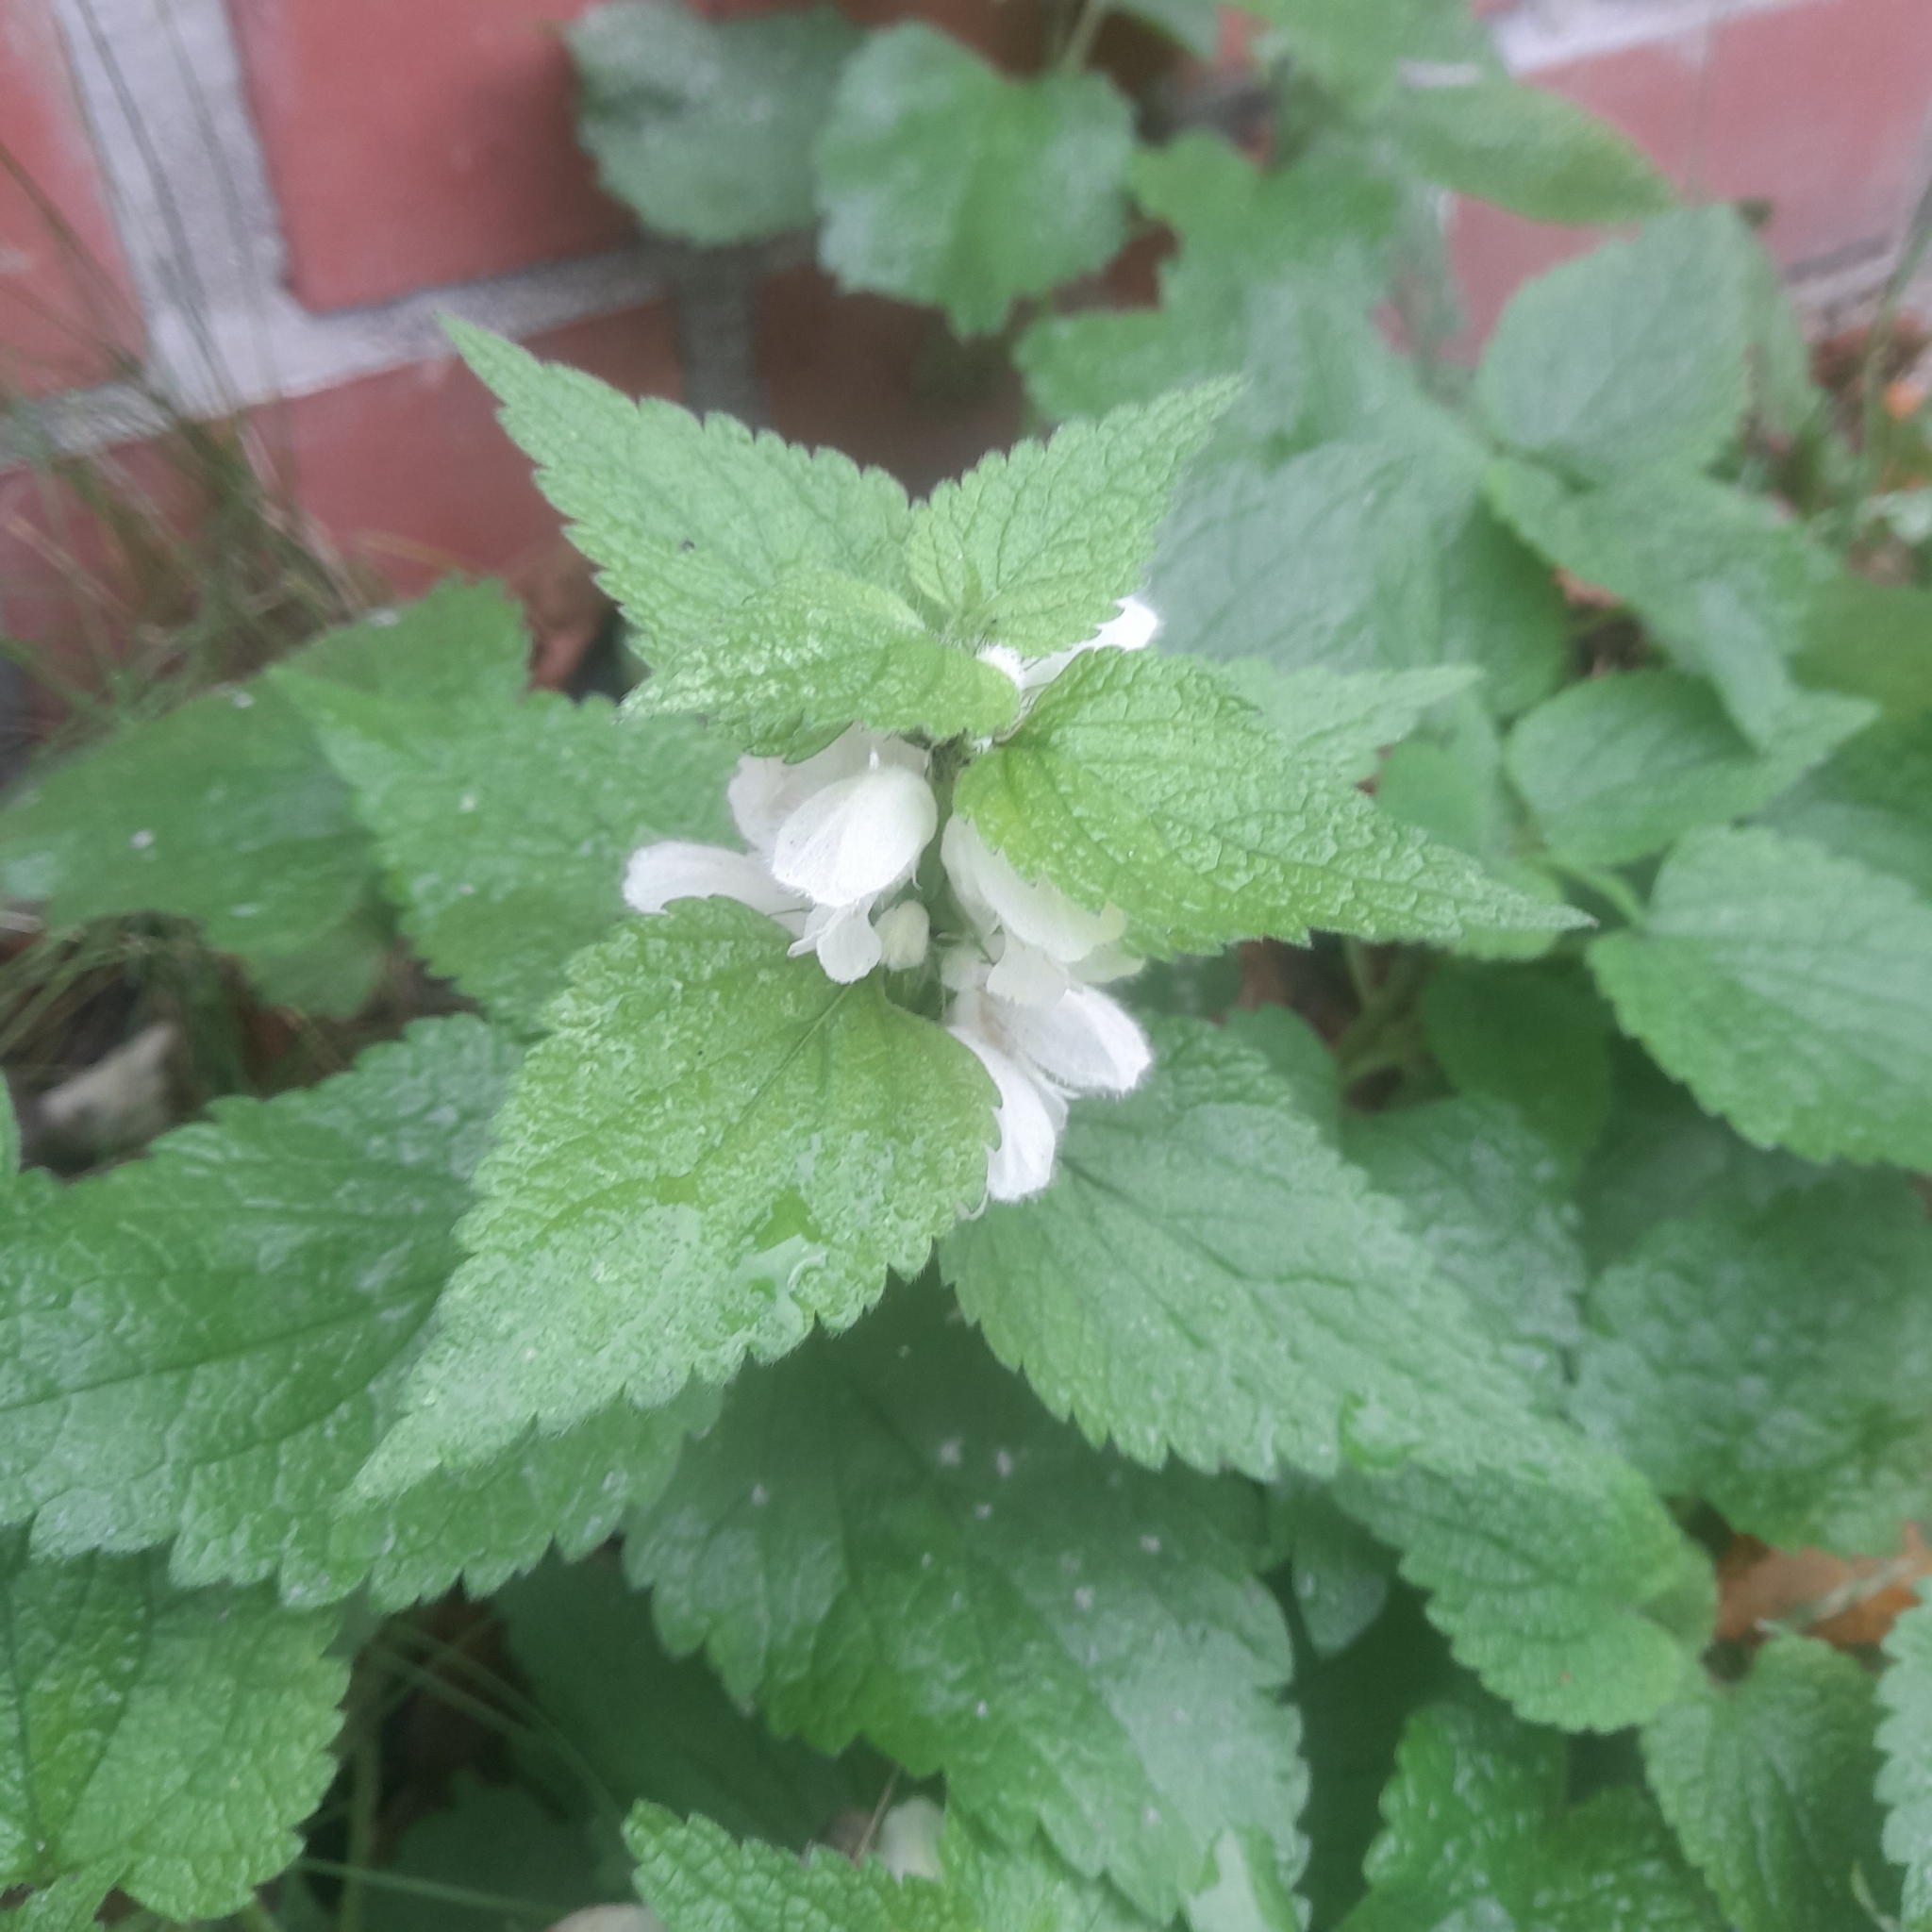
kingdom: Plantae
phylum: Tracheophyta
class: Magnoliopsida
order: Lamiales
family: Lamiaceae
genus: Lamium
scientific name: Lamium album
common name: White dead-nettle
